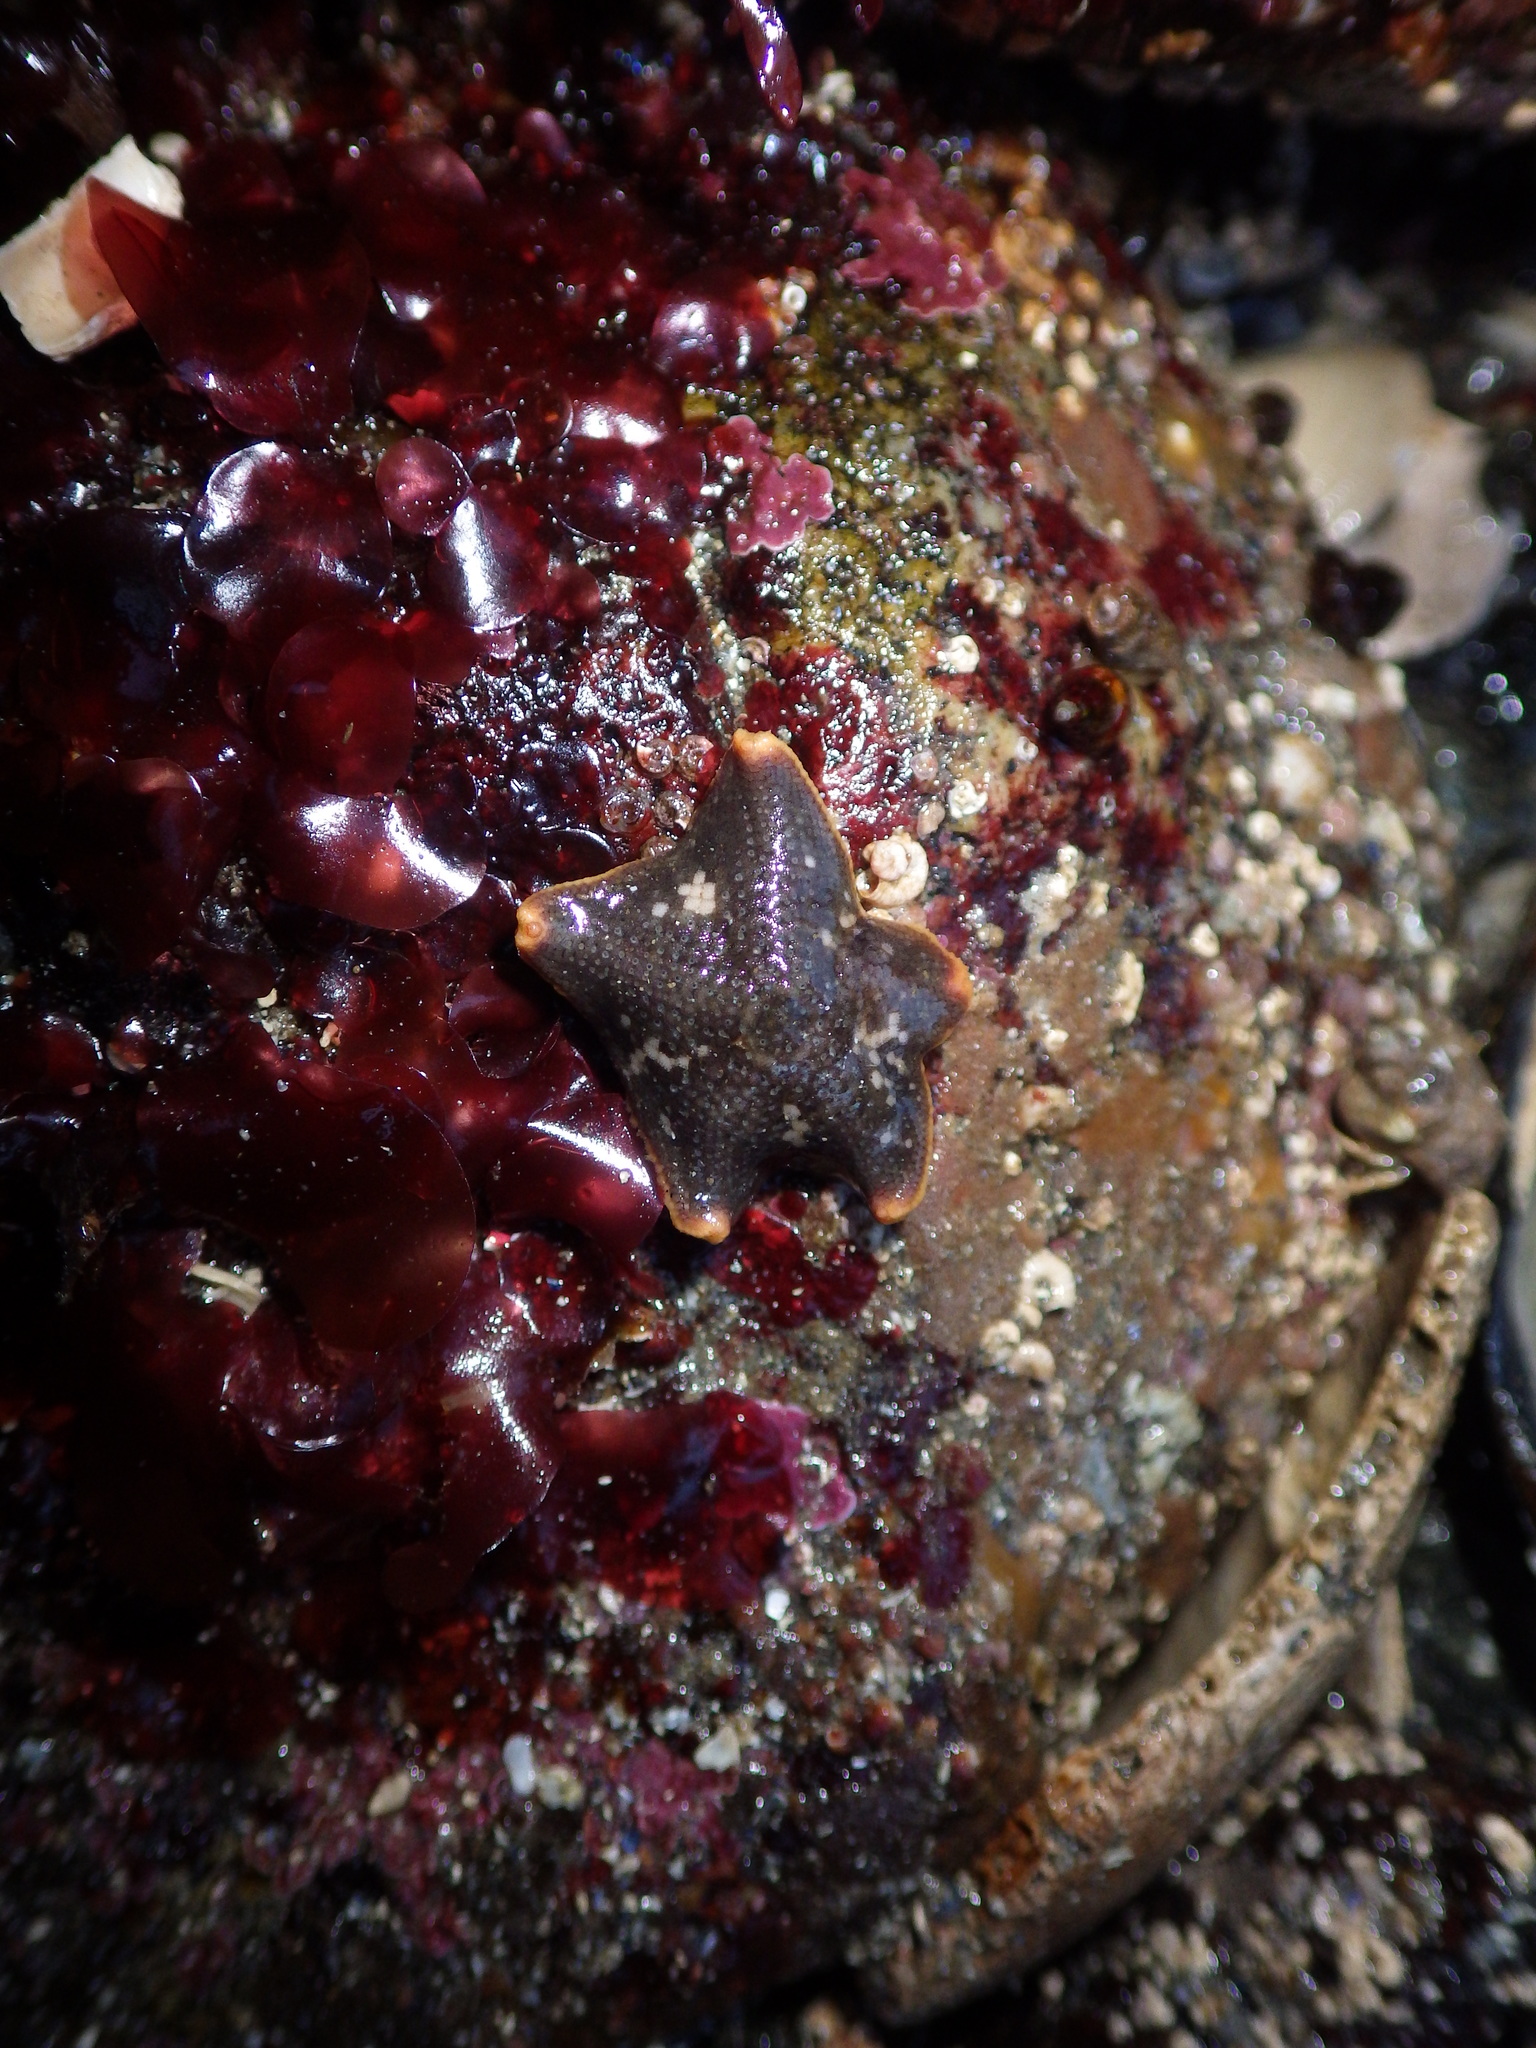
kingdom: Animalia
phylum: Echinodermata
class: Asteroidea
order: Valvatida
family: Asterinidae
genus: Patiria
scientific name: Patiria miniata
